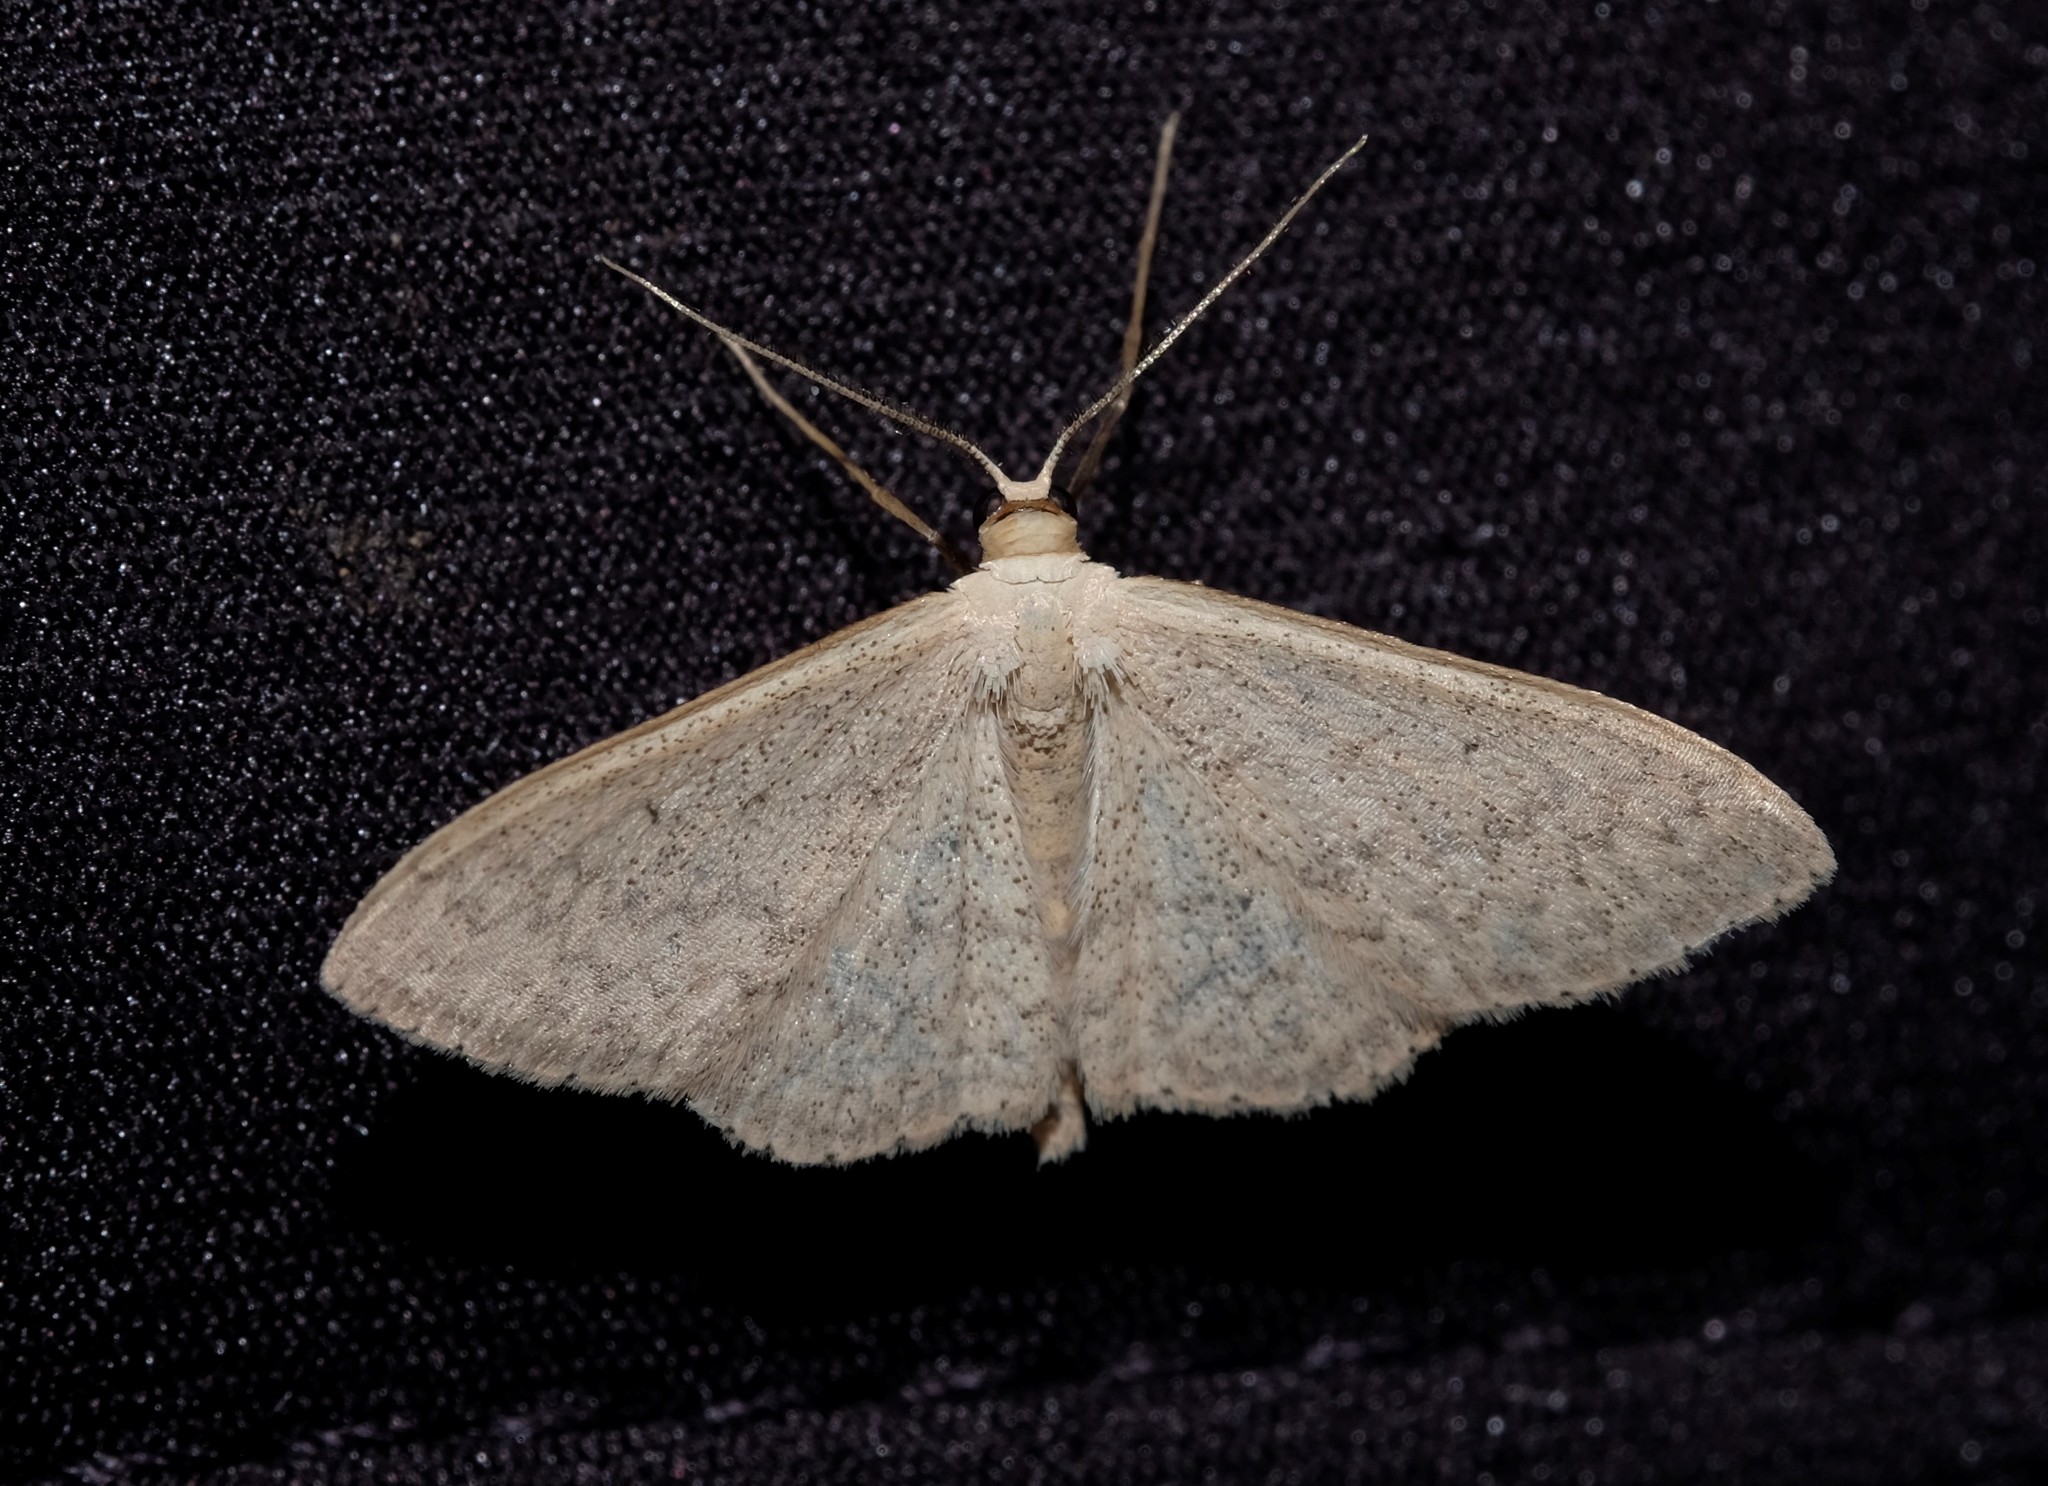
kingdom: Animalia
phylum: Arthropoda
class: Insecta
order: Lepidoptera
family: Geometridae
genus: Scopula
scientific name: Scopula rubraria
